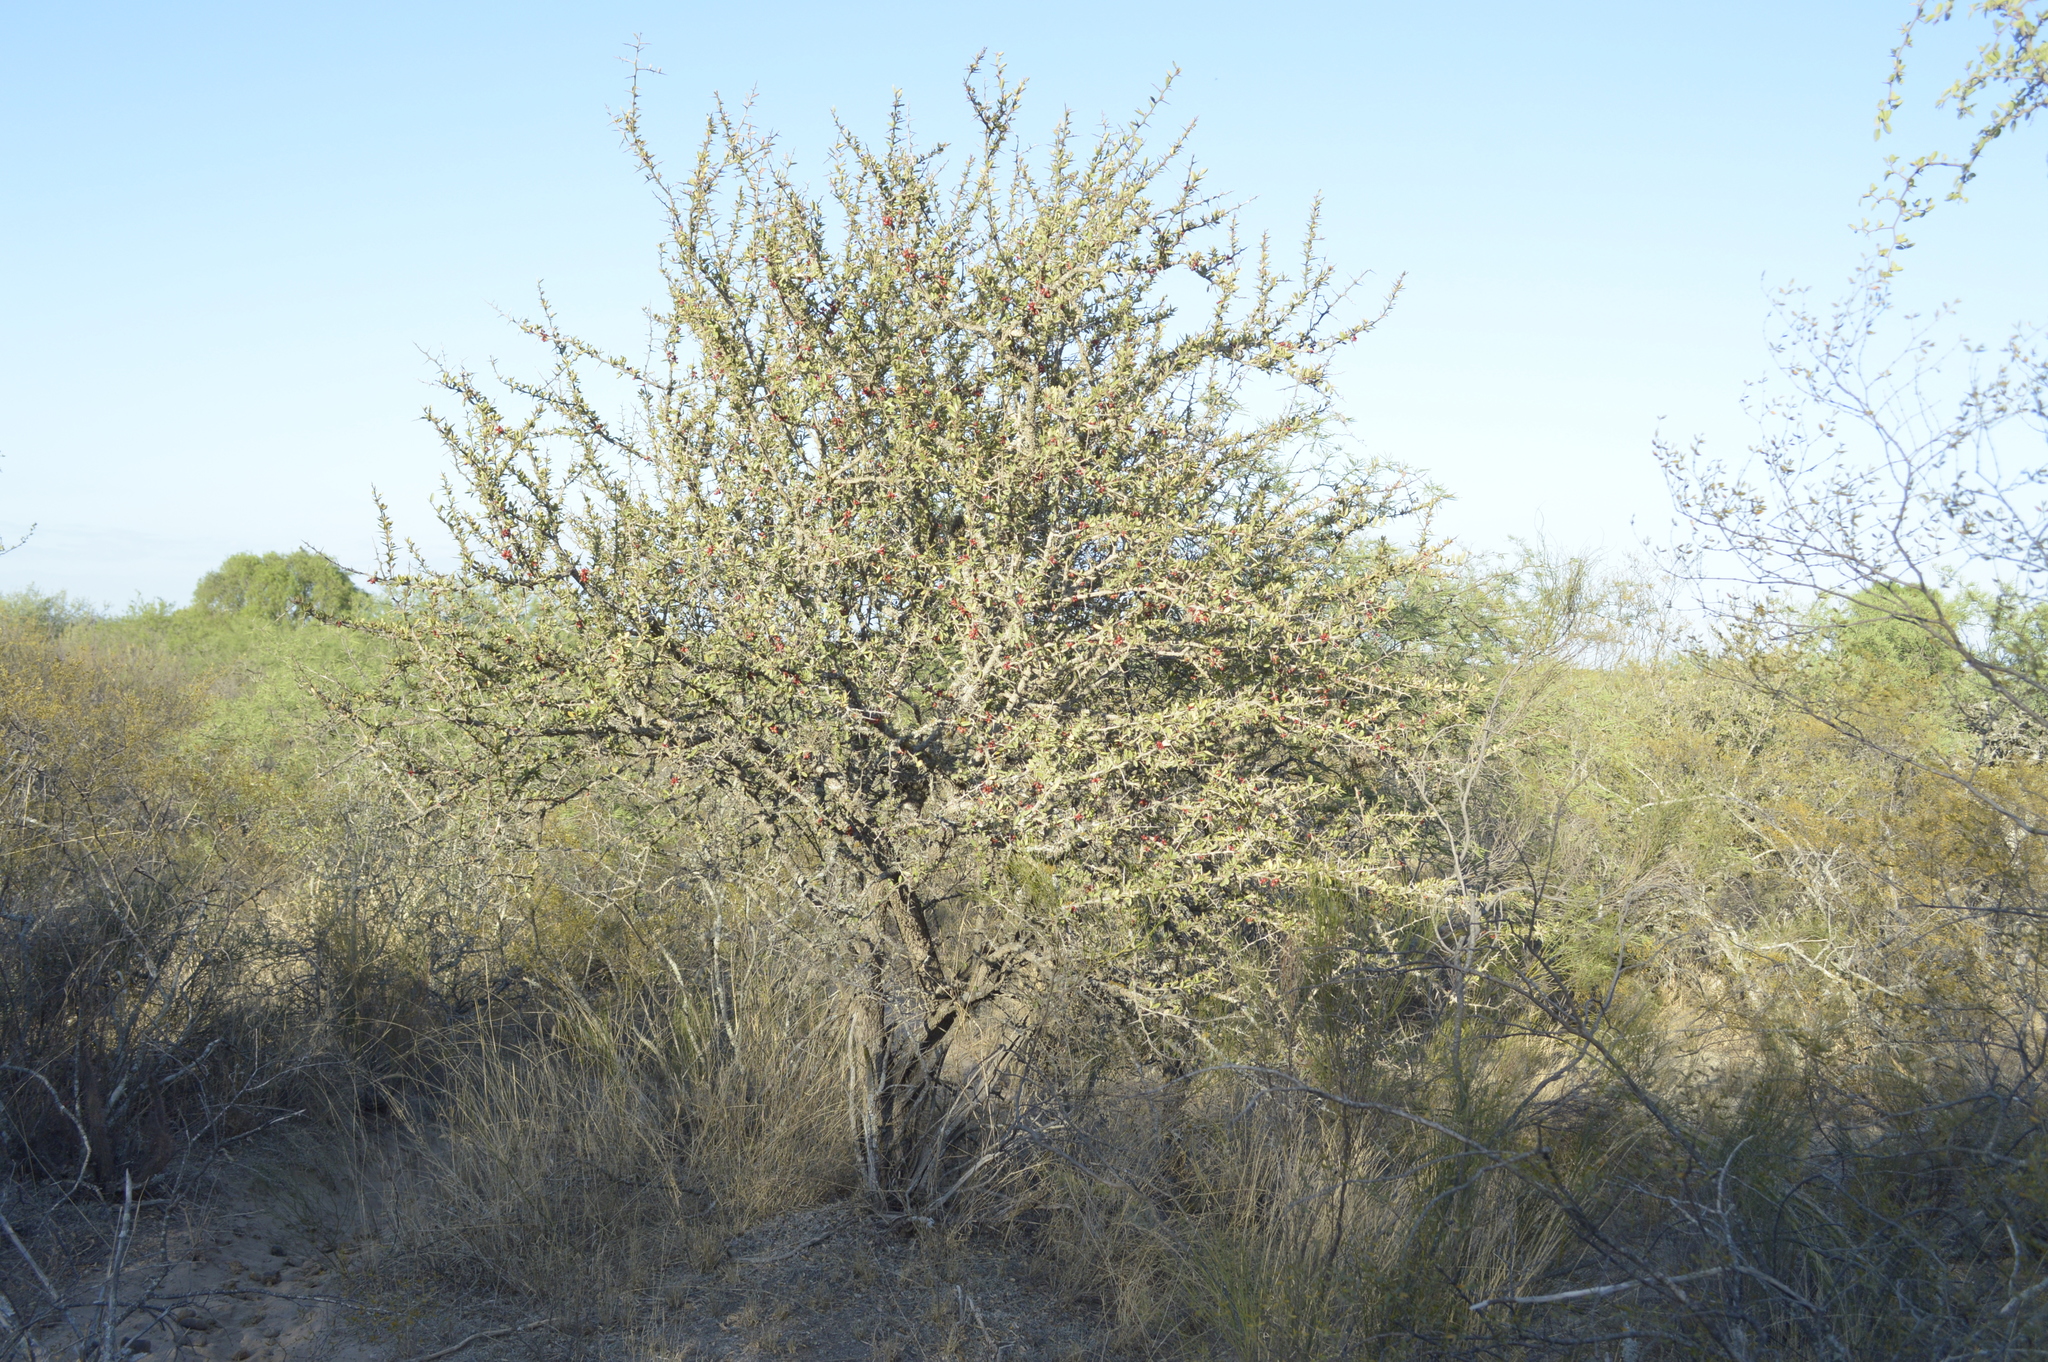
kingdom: Plantae
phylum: Tracheophyta
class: Magnoliopsida
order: Sapindales
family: Simaroubaceae
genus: Castela
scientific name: Castela coccinea
